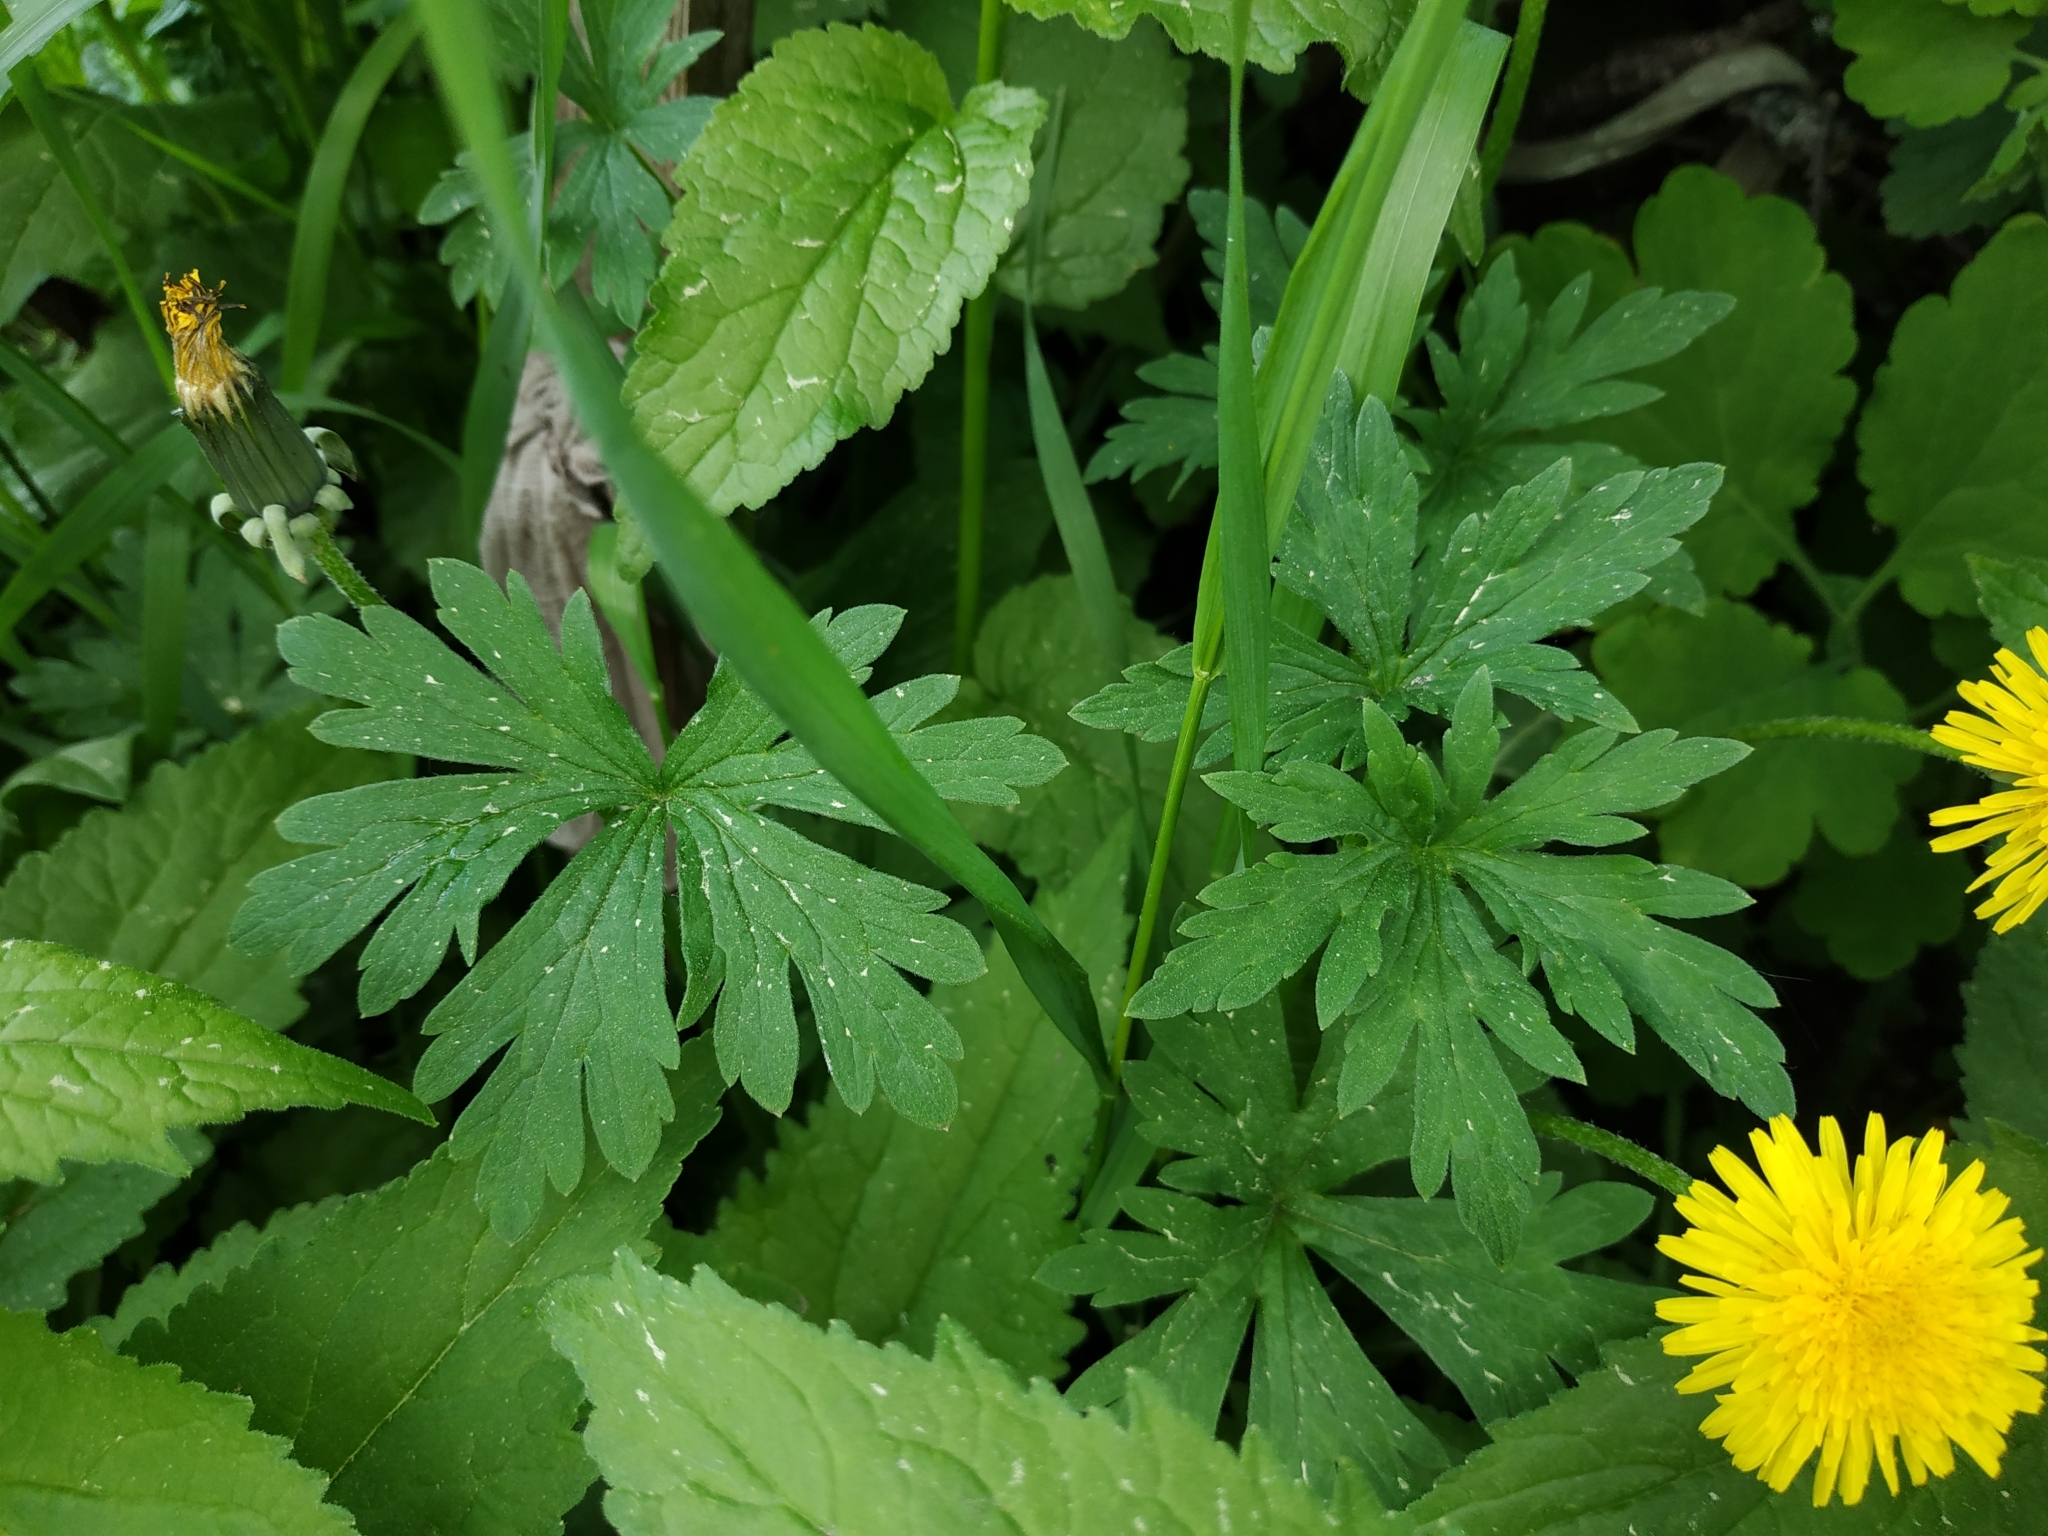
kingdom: Plantae
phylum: Tracheophyta
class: Magnoliopsida
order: Geraniales
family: Geraniaceae
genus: Geranium
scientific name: Geranium sibiricum
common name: Siberian crane's-bill
